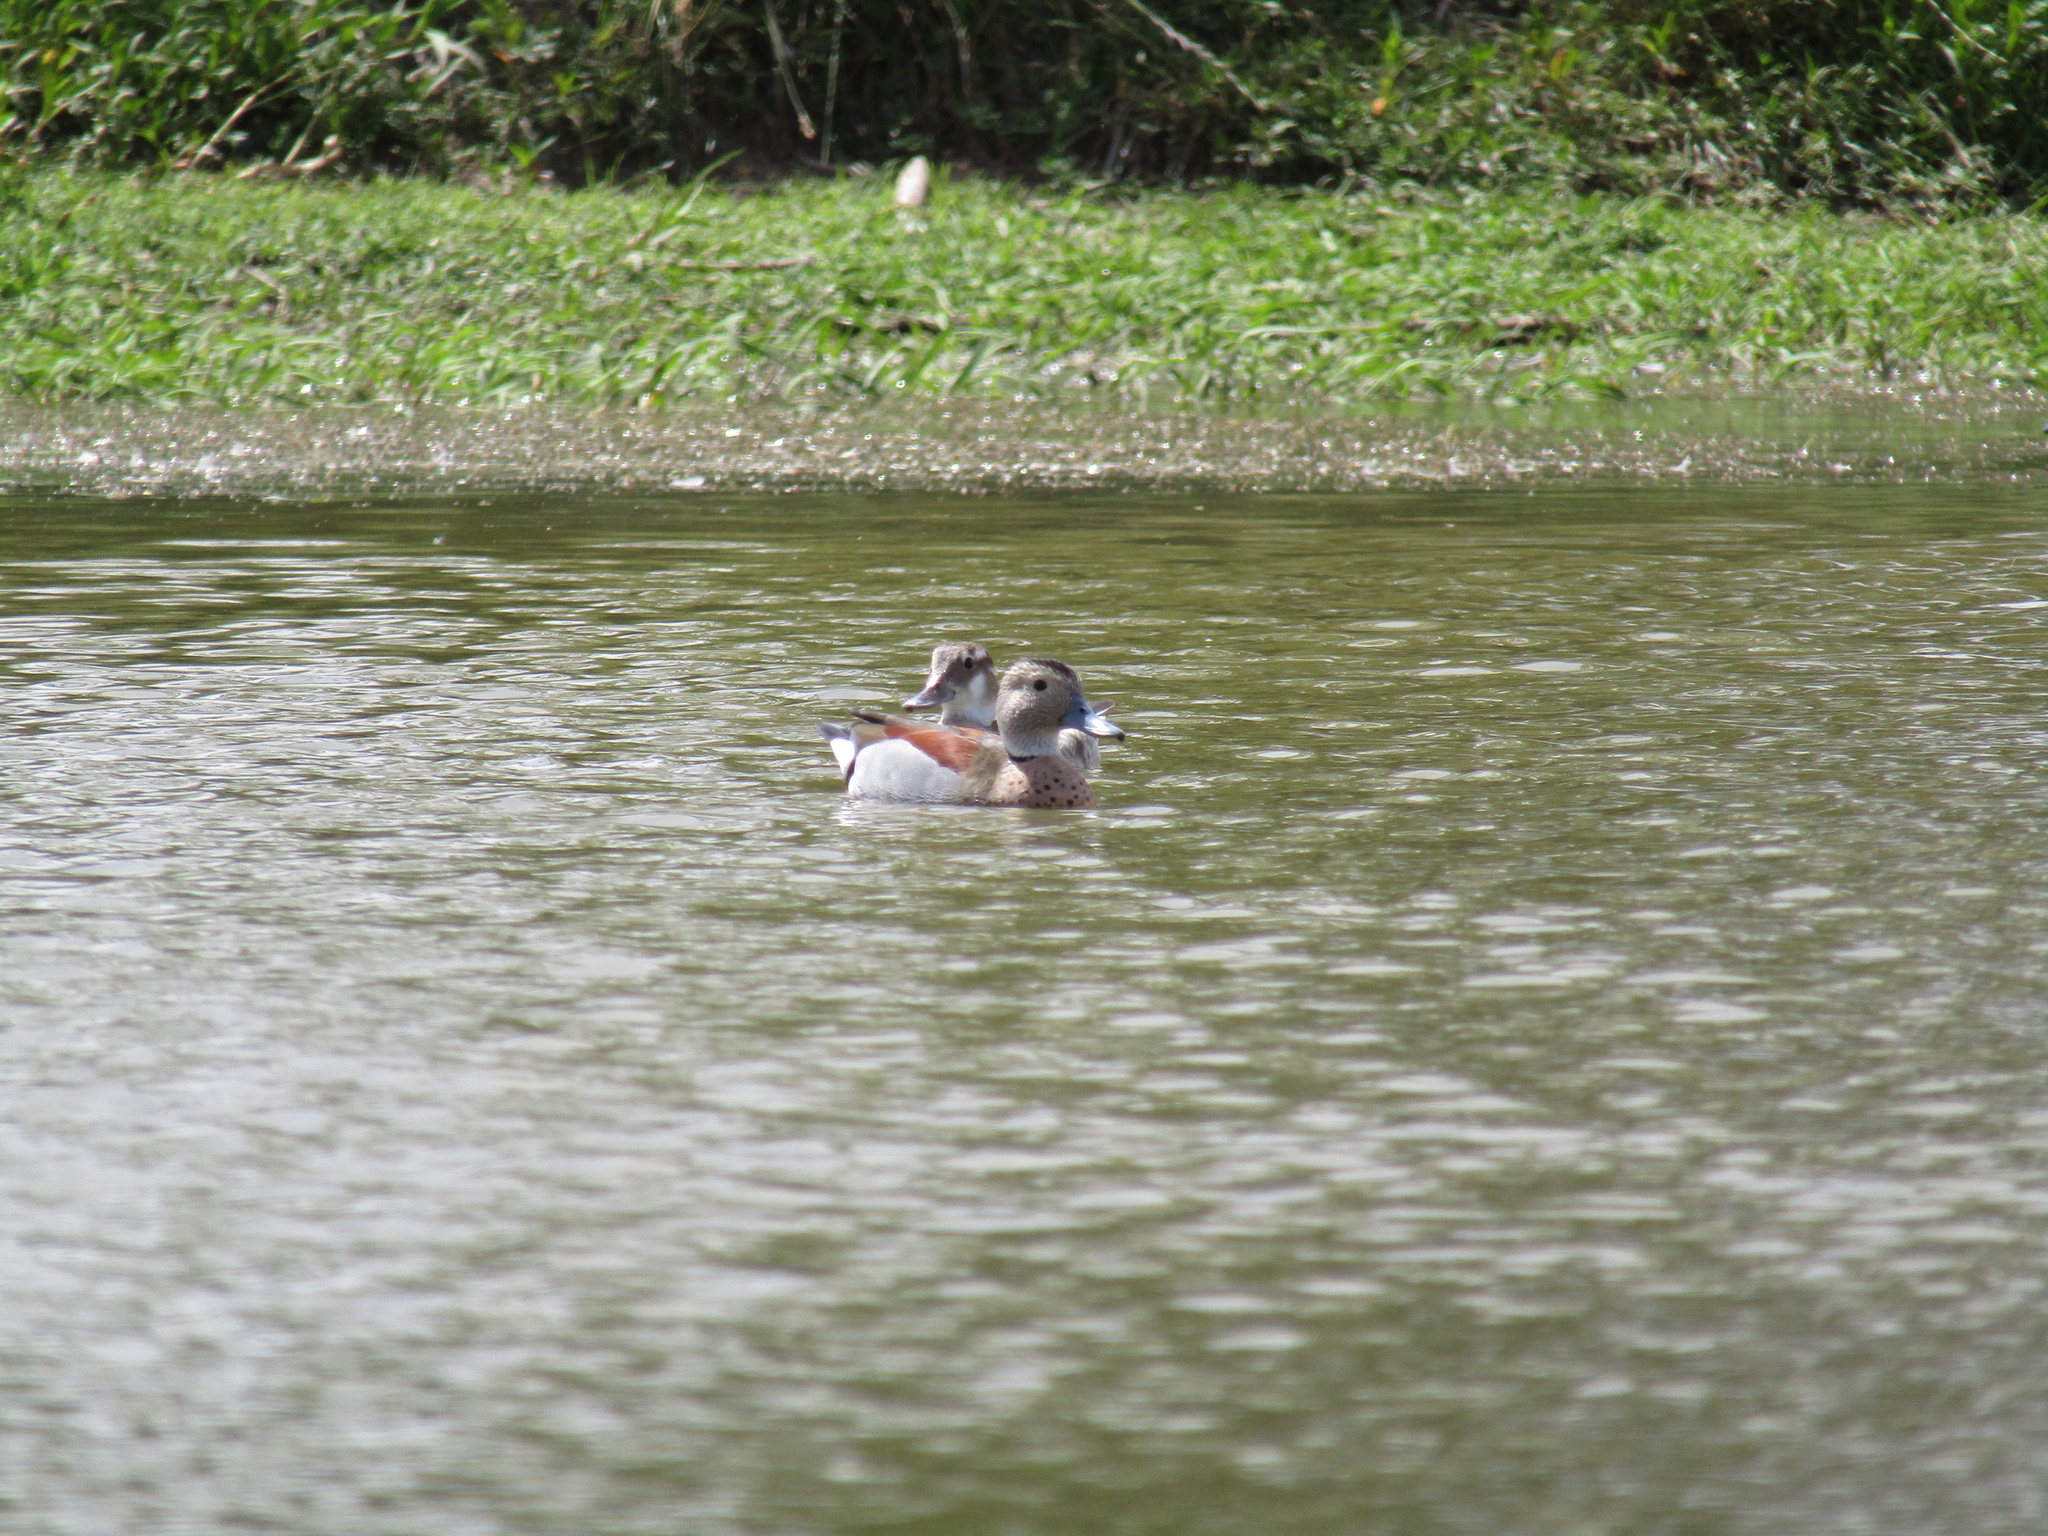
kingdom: Animalia
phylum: Chordata
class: Aves
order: Anseriformes
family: Anatidae
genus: Callonetta
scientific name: Callonetta leucophrys
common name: Ringed teal
